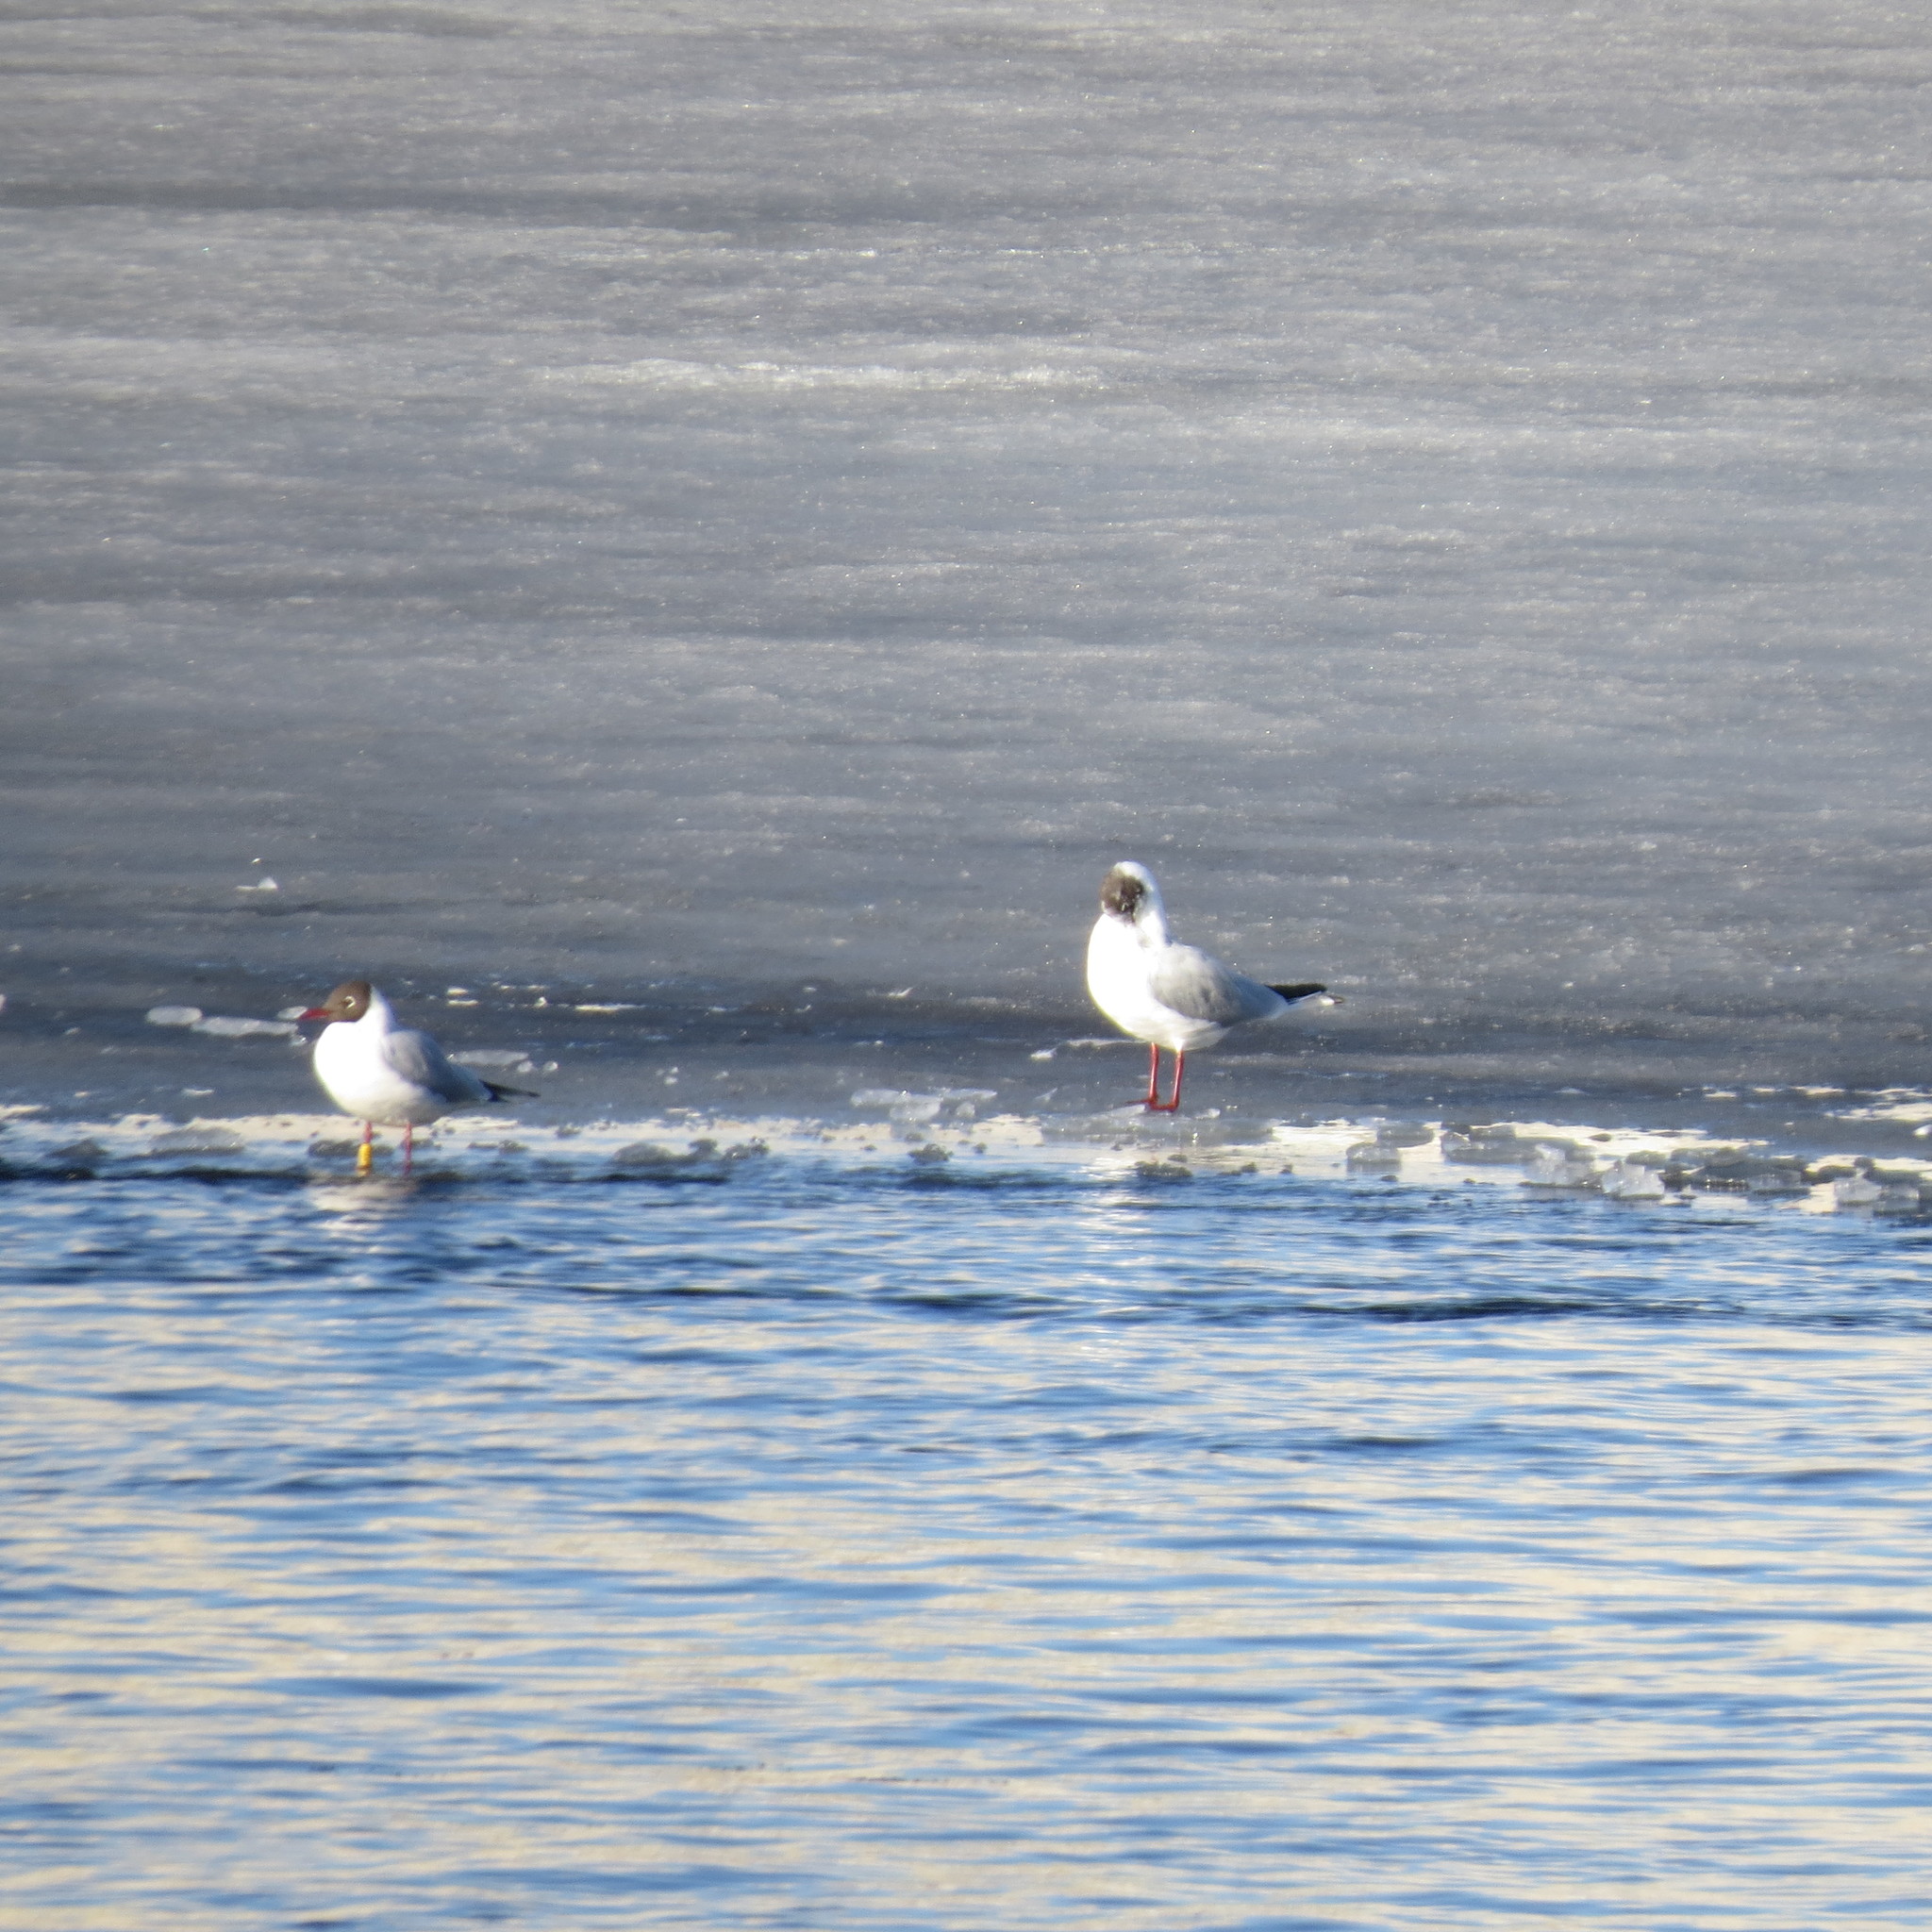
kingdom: Animalia
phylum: Chordata
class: Aves
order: Charadriiformes
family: Laridae
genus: Chroicocephalus
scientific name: Chroicocephalus ridibundus
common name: Black-headed gull
